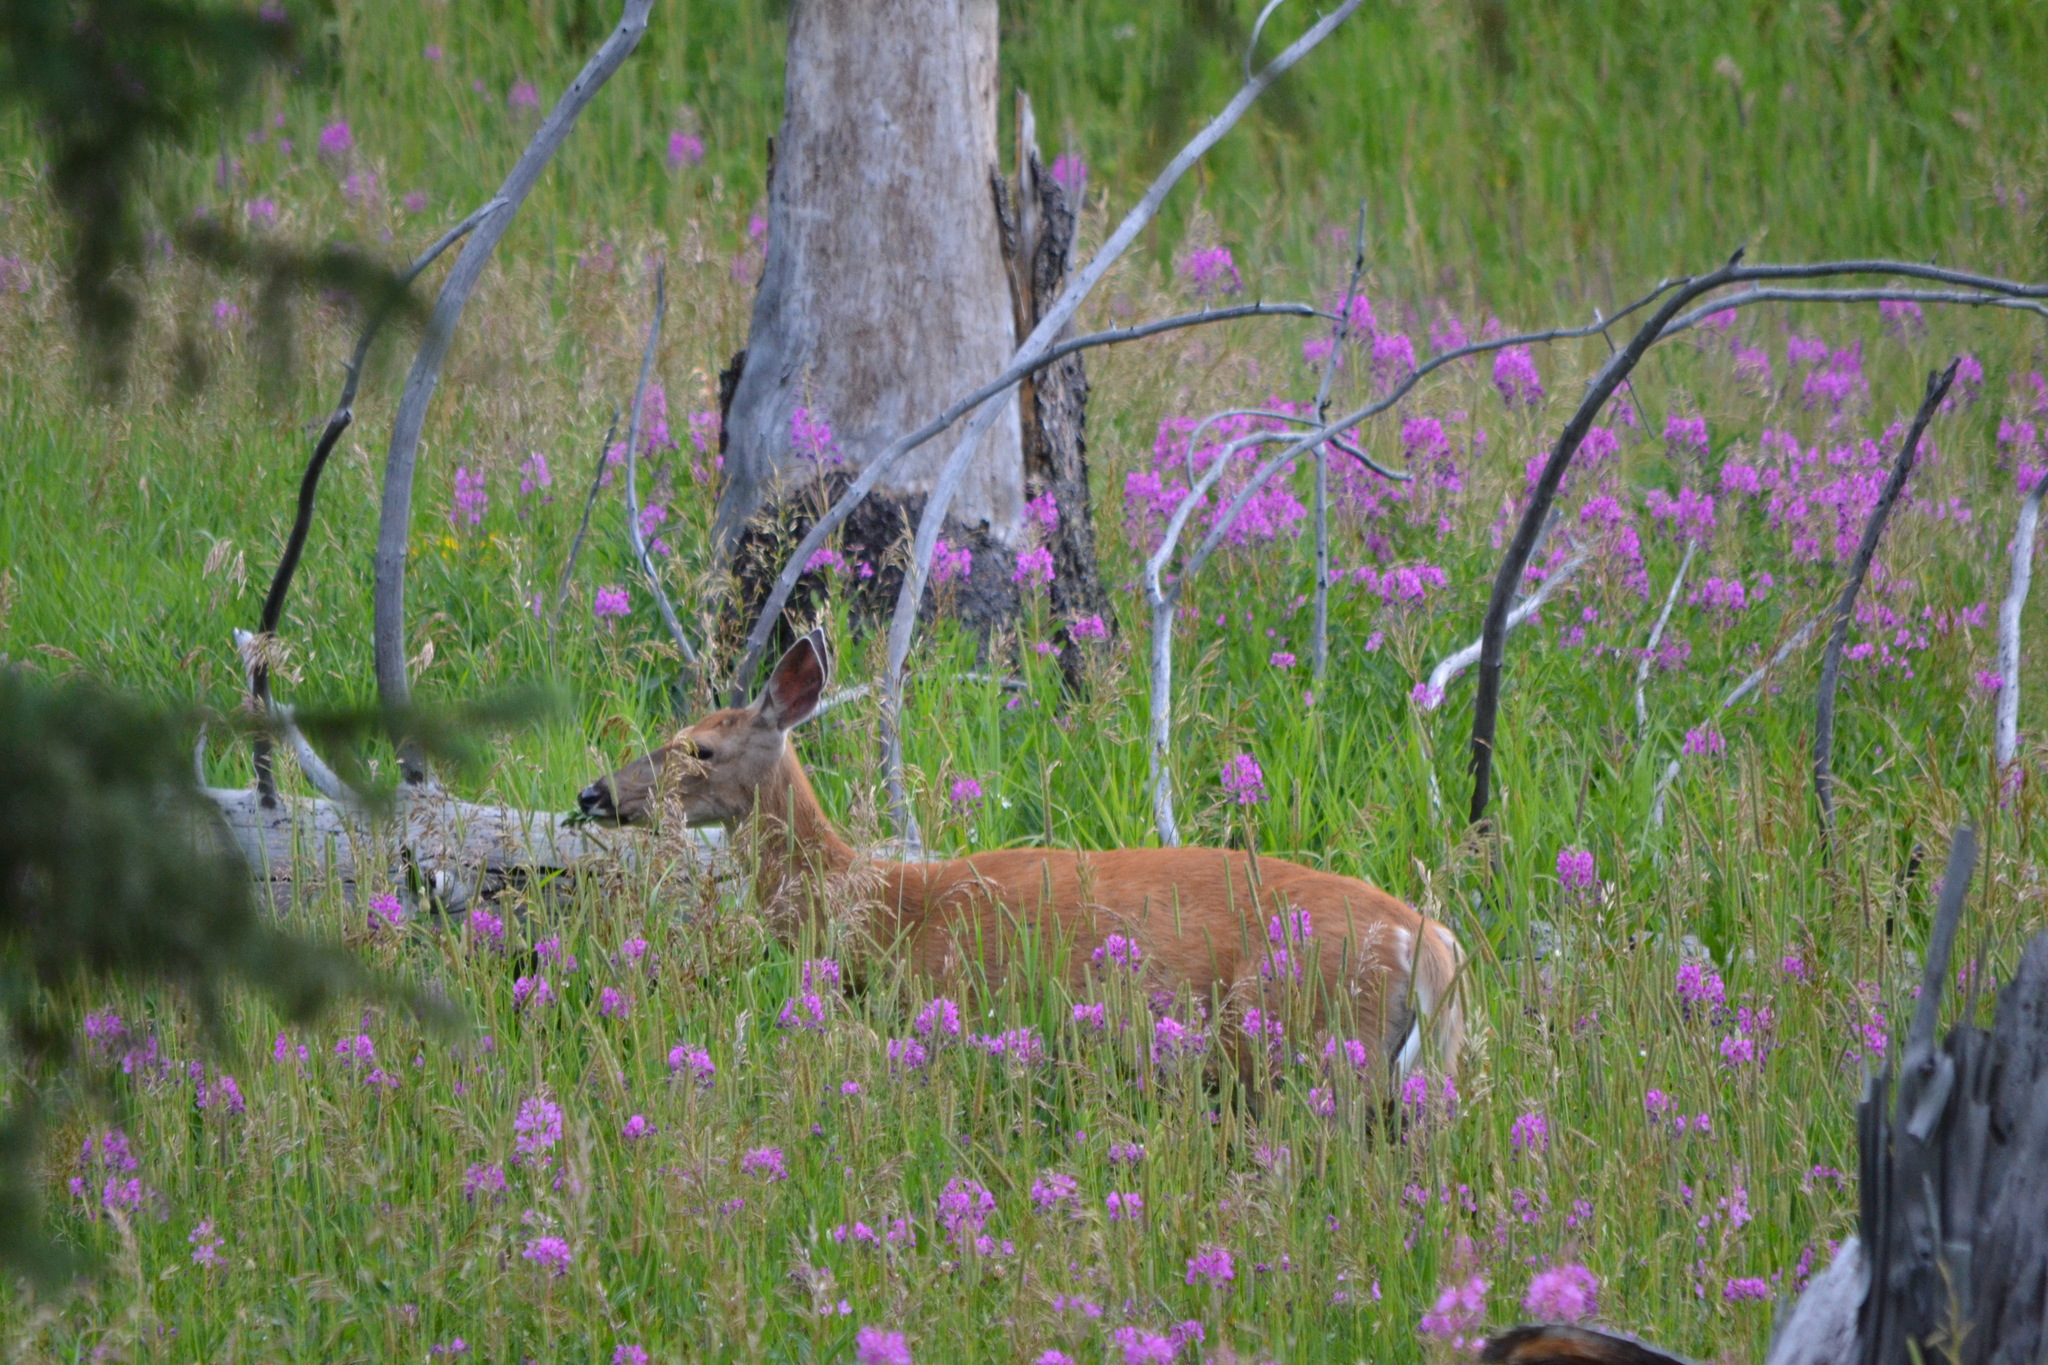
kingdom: Animalia
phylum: Chordata
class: Mammalia
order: Artiodactyla
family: Cervidae
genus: Odocoileus
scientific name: Odocoileus virginianus
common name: White-tailed deer
